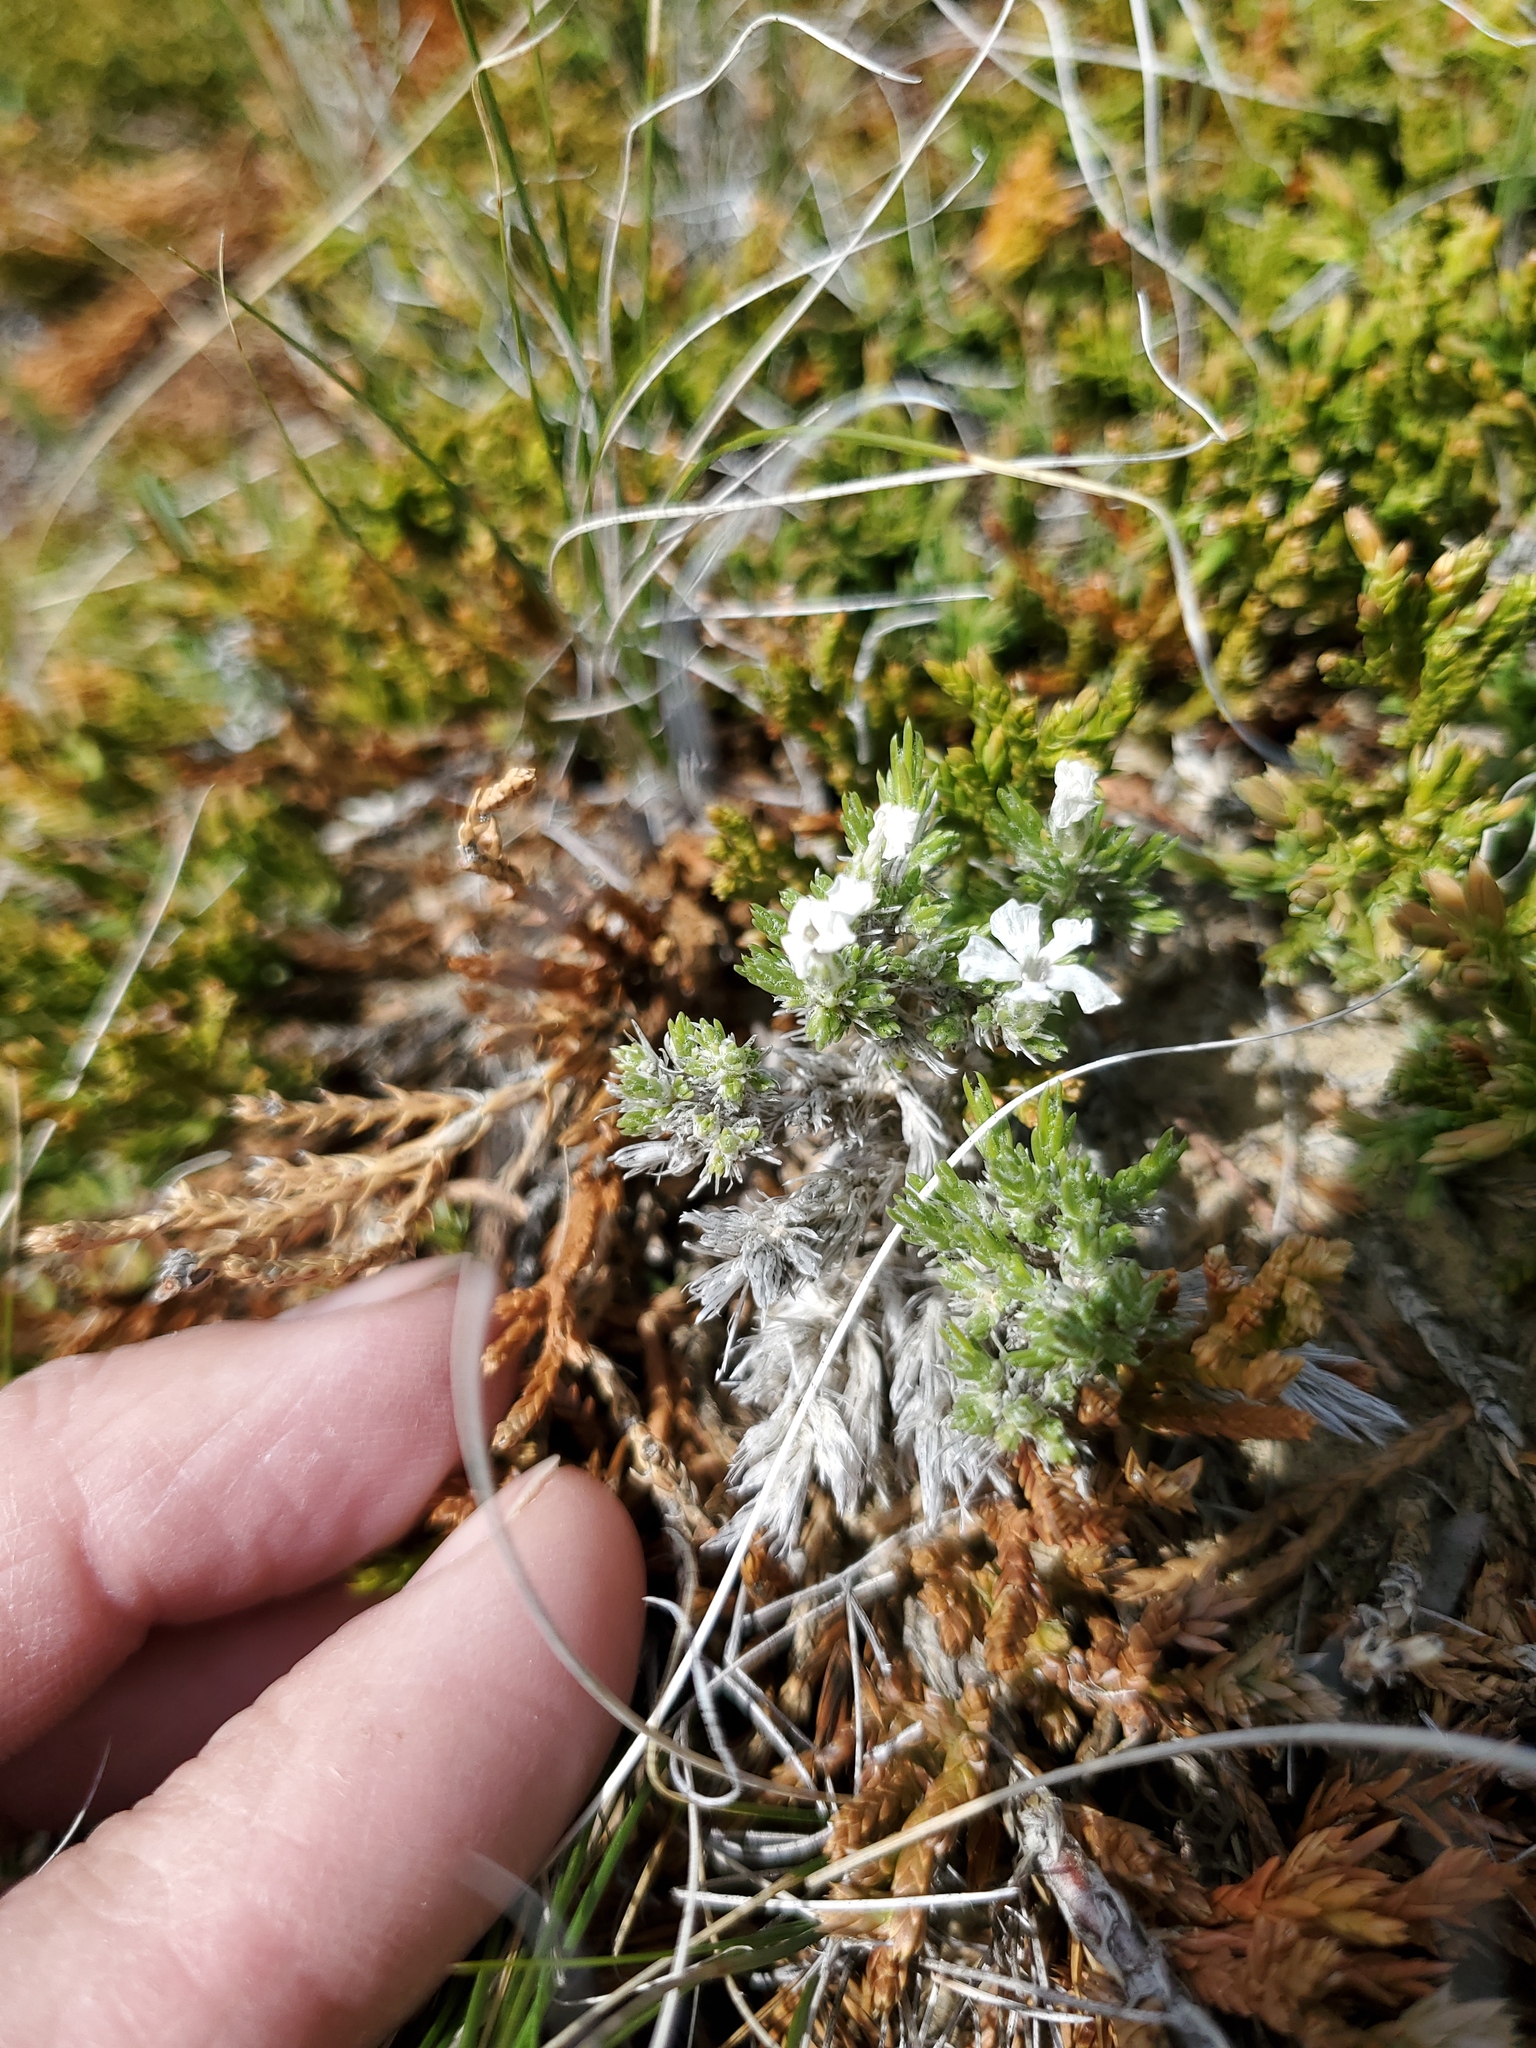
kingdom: Plantae
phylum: Tracheophyta
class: Magnoliopsida
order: Ericales
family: Polemoniaceae
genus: Phlox
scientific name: Phlox hoodii
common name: Moss phlox
